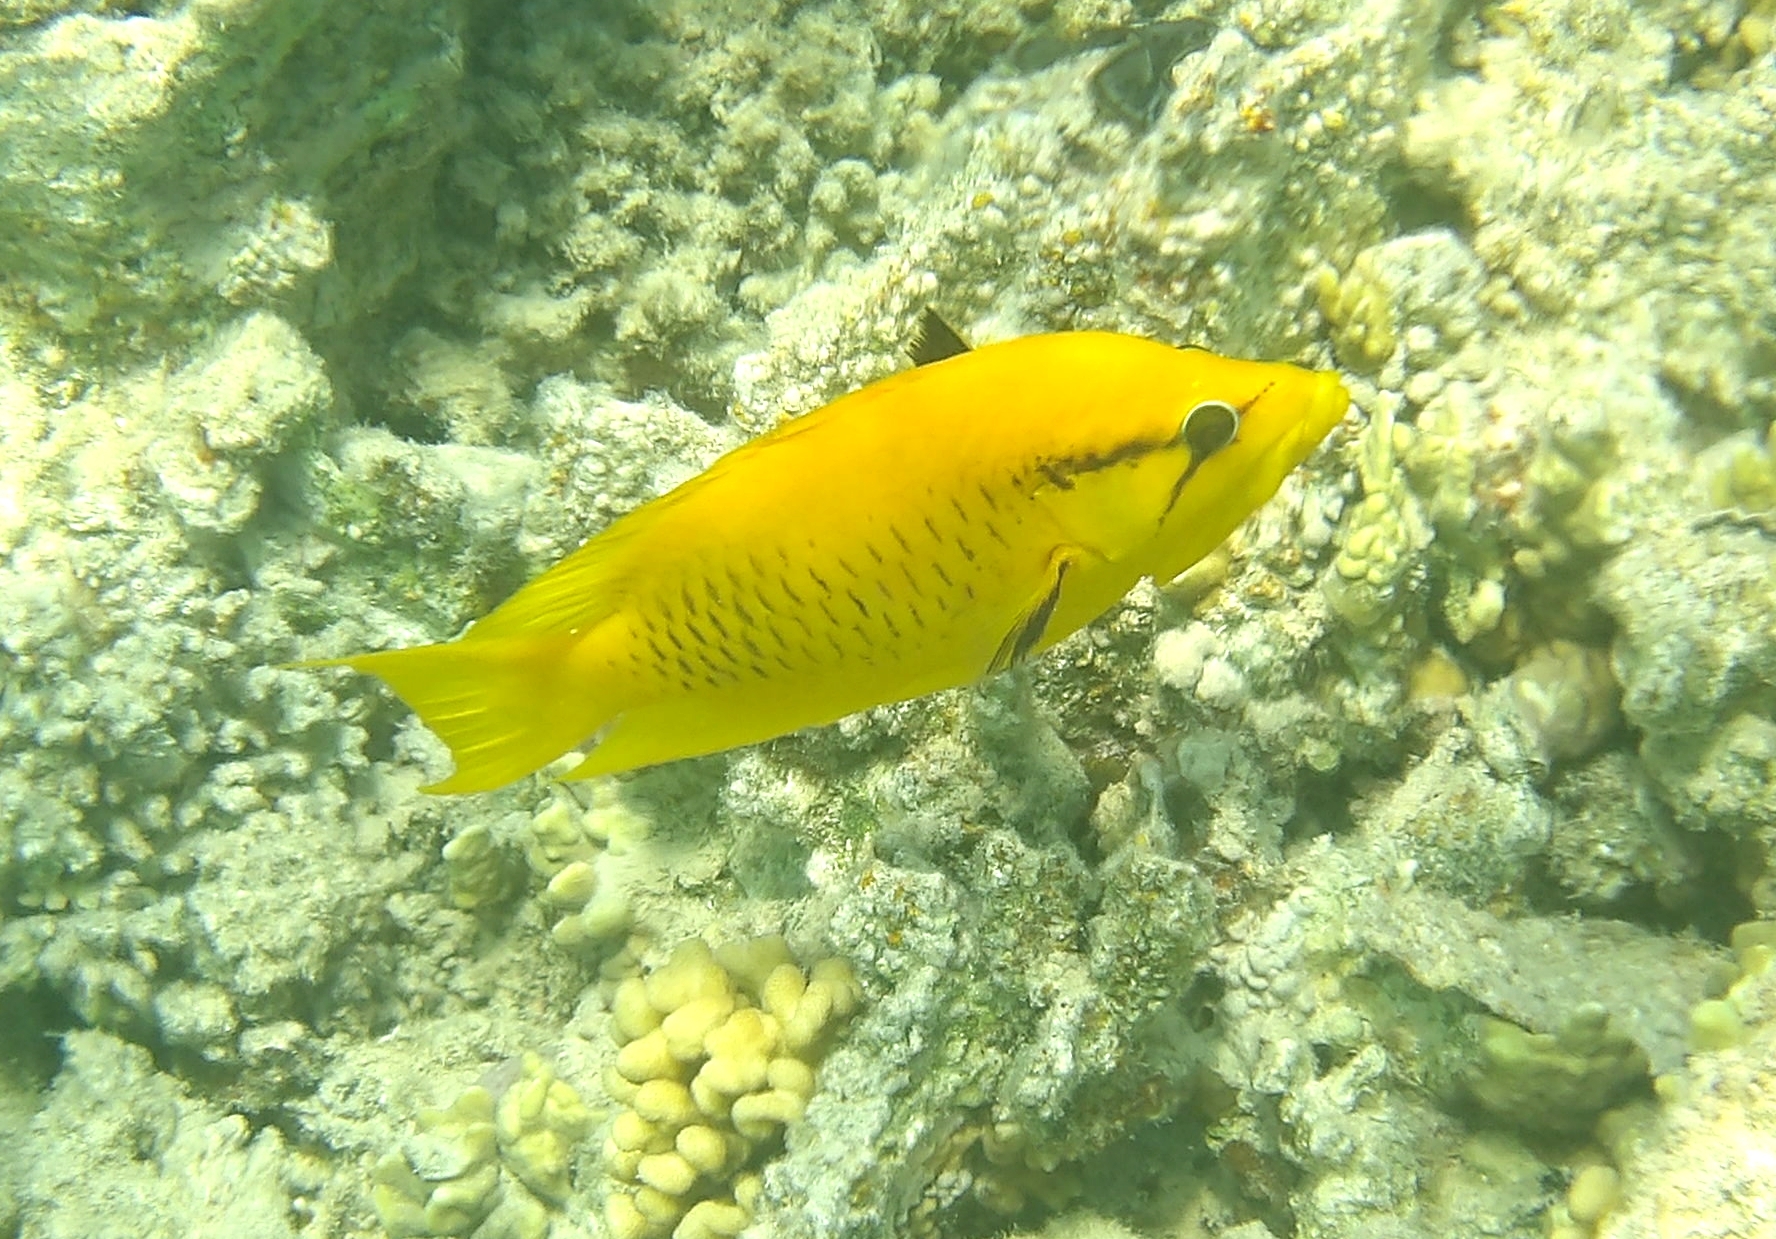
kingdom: Animalia
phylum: Chordata
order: Perciformes
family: Labridae
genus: Epibulus
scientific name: Epibulus insidiator
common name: Slingjaw wrasse
